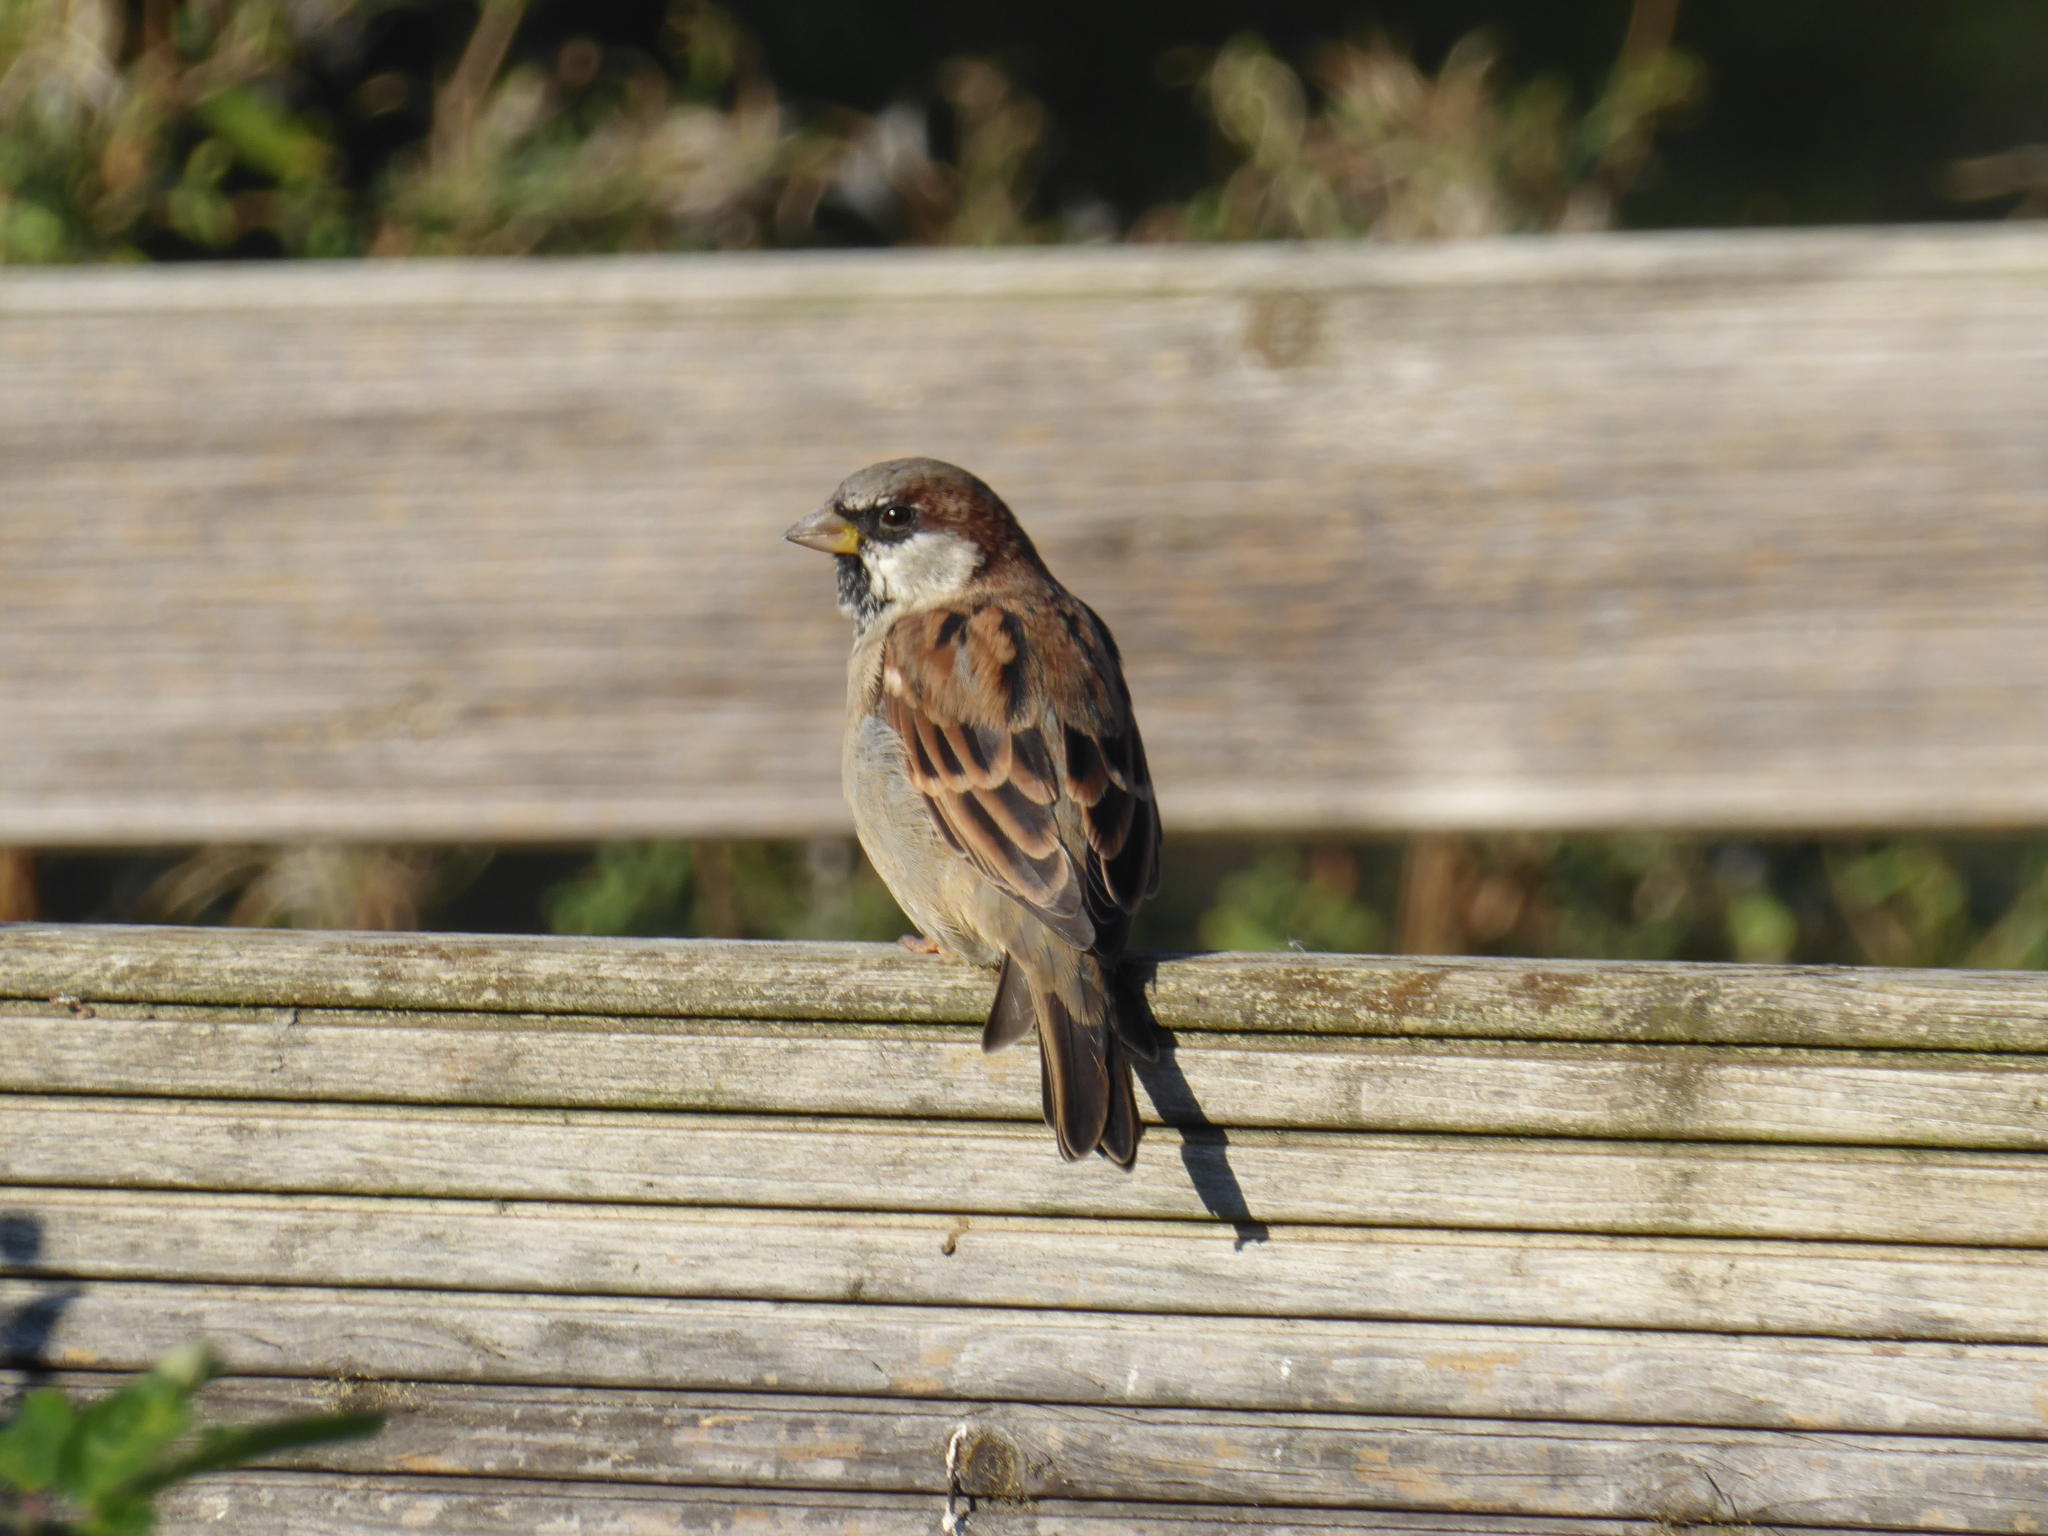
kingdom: Animalia
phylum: Chordata
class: Aves
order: Passeriformes
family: Passeridae
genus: Passer
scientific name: Passer domesticus
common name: House sparrow
